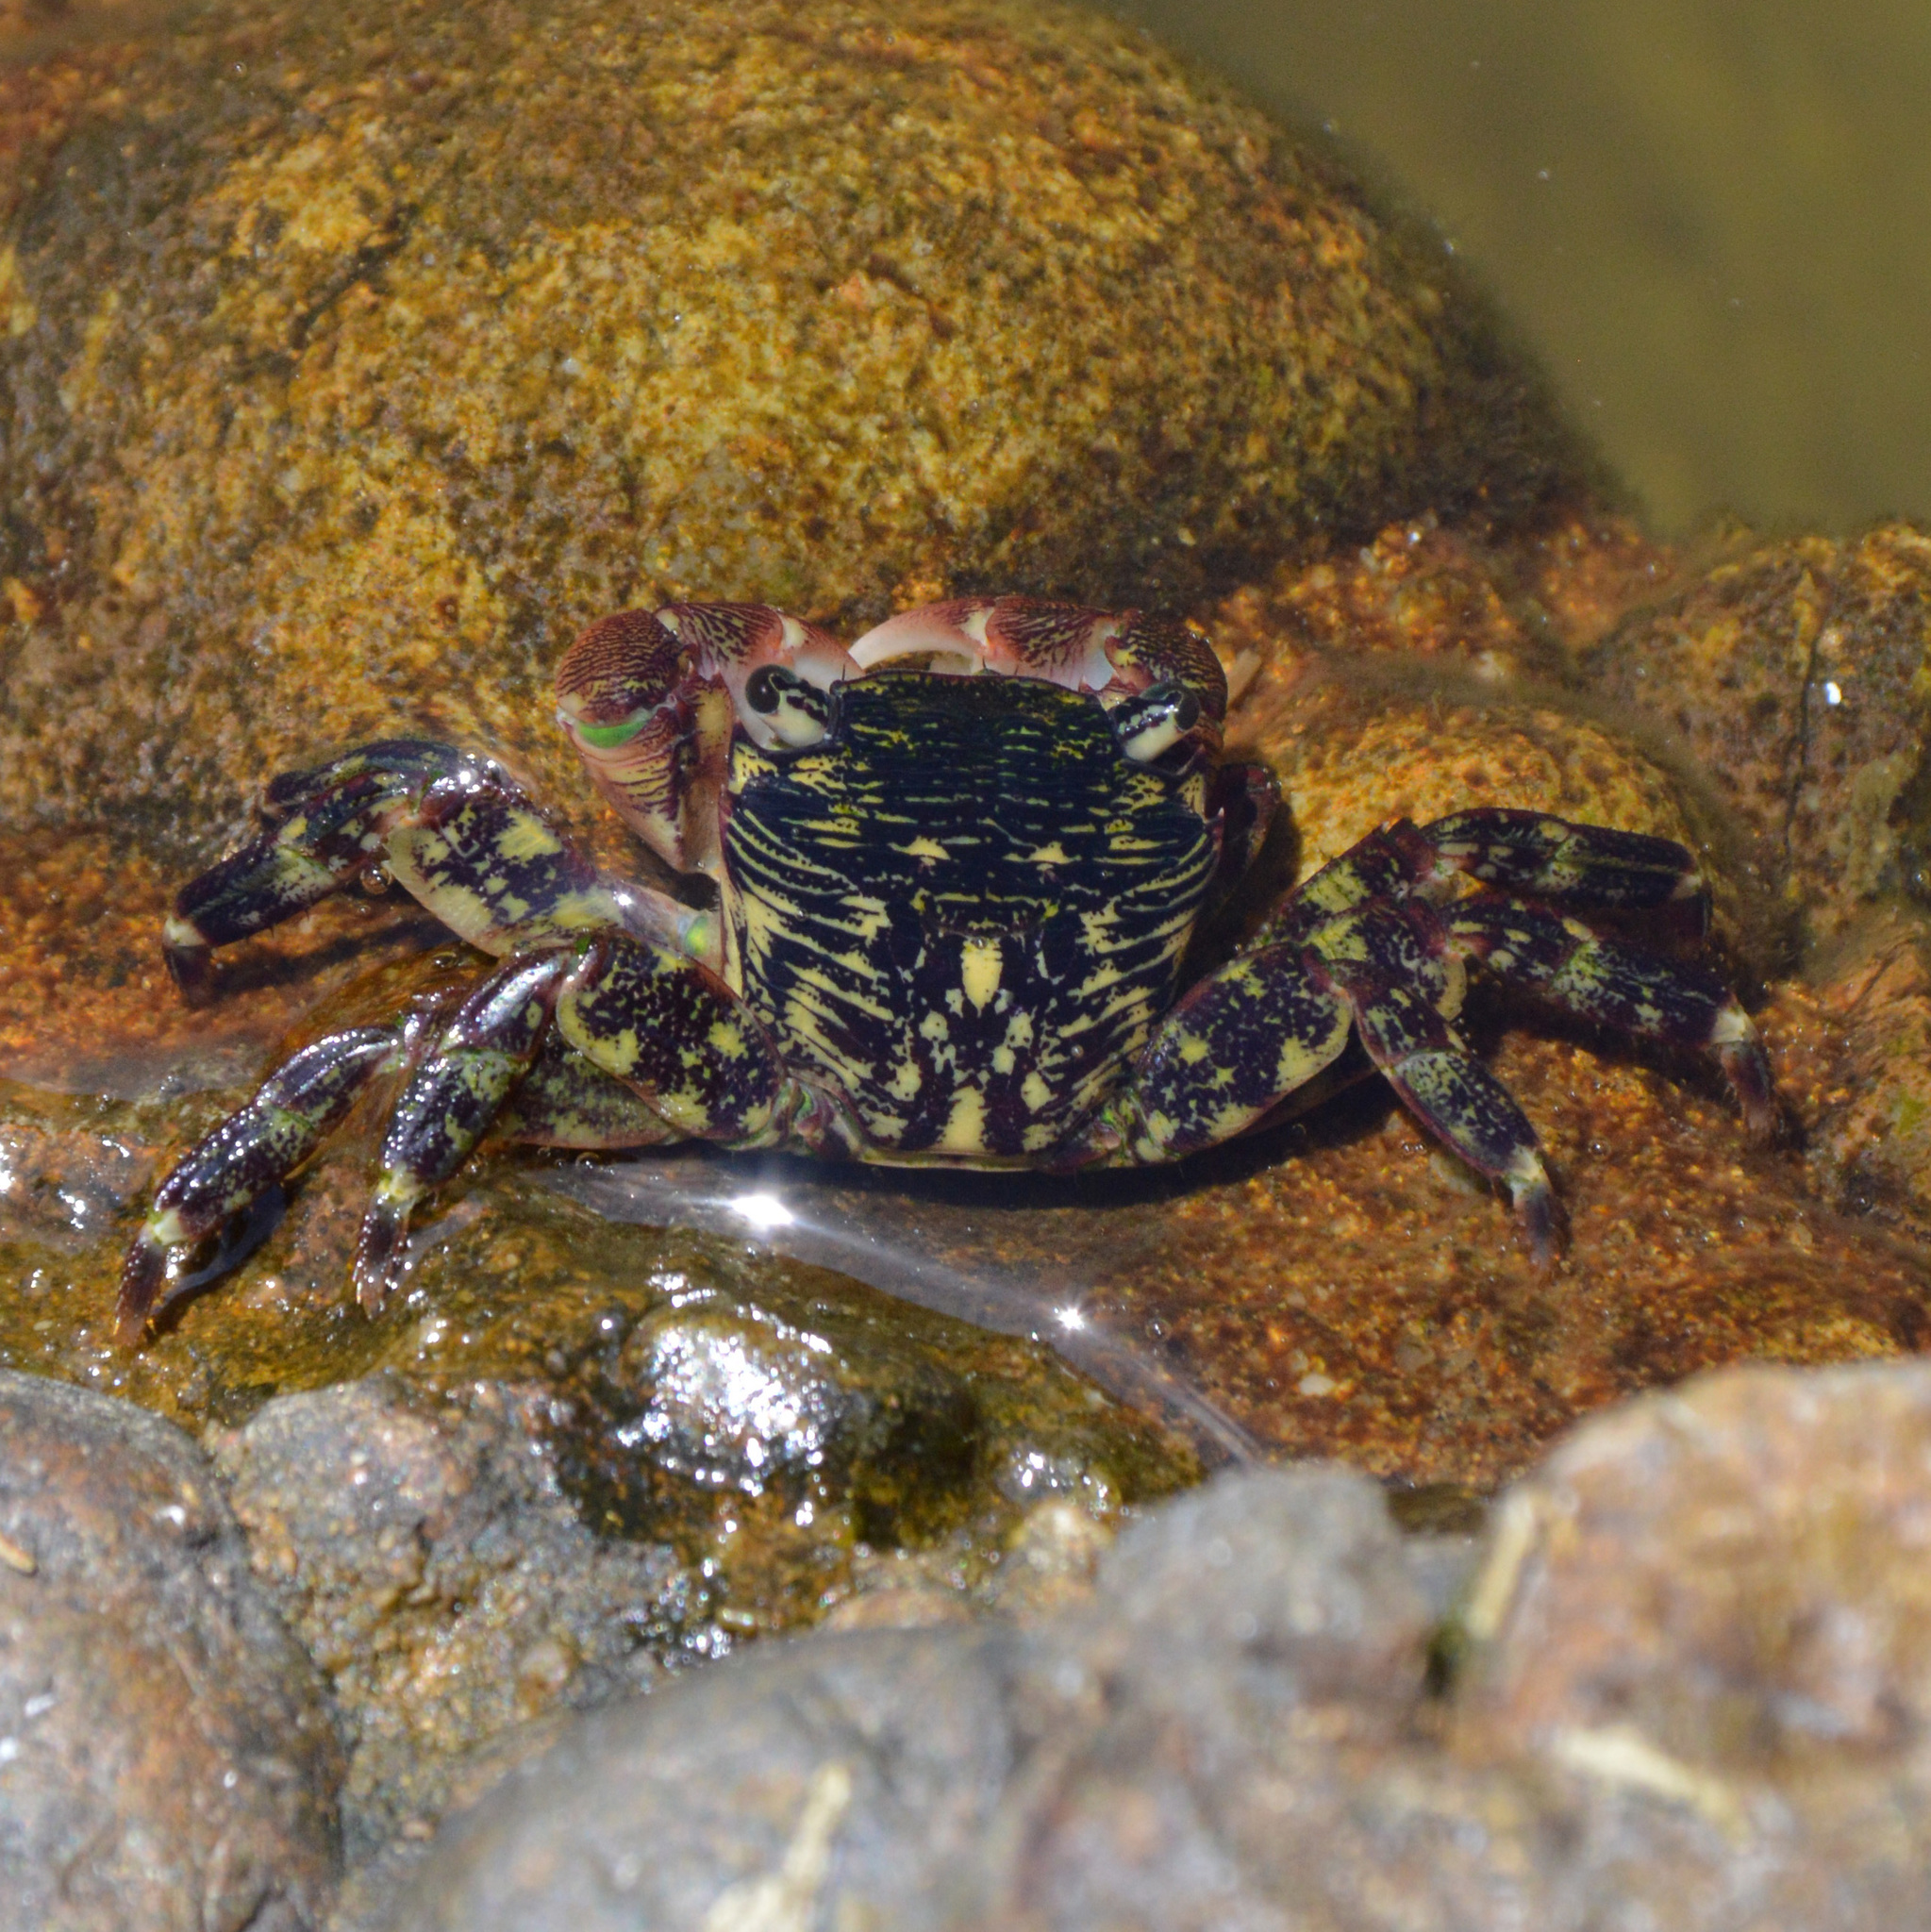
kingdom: Animalia
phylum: Arthropoda
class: Malacostraca
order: Decapoda
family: Grapsidae
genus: Pachygrapsus
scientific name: Pachygrapsus crassipes
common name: Striped shore crab
